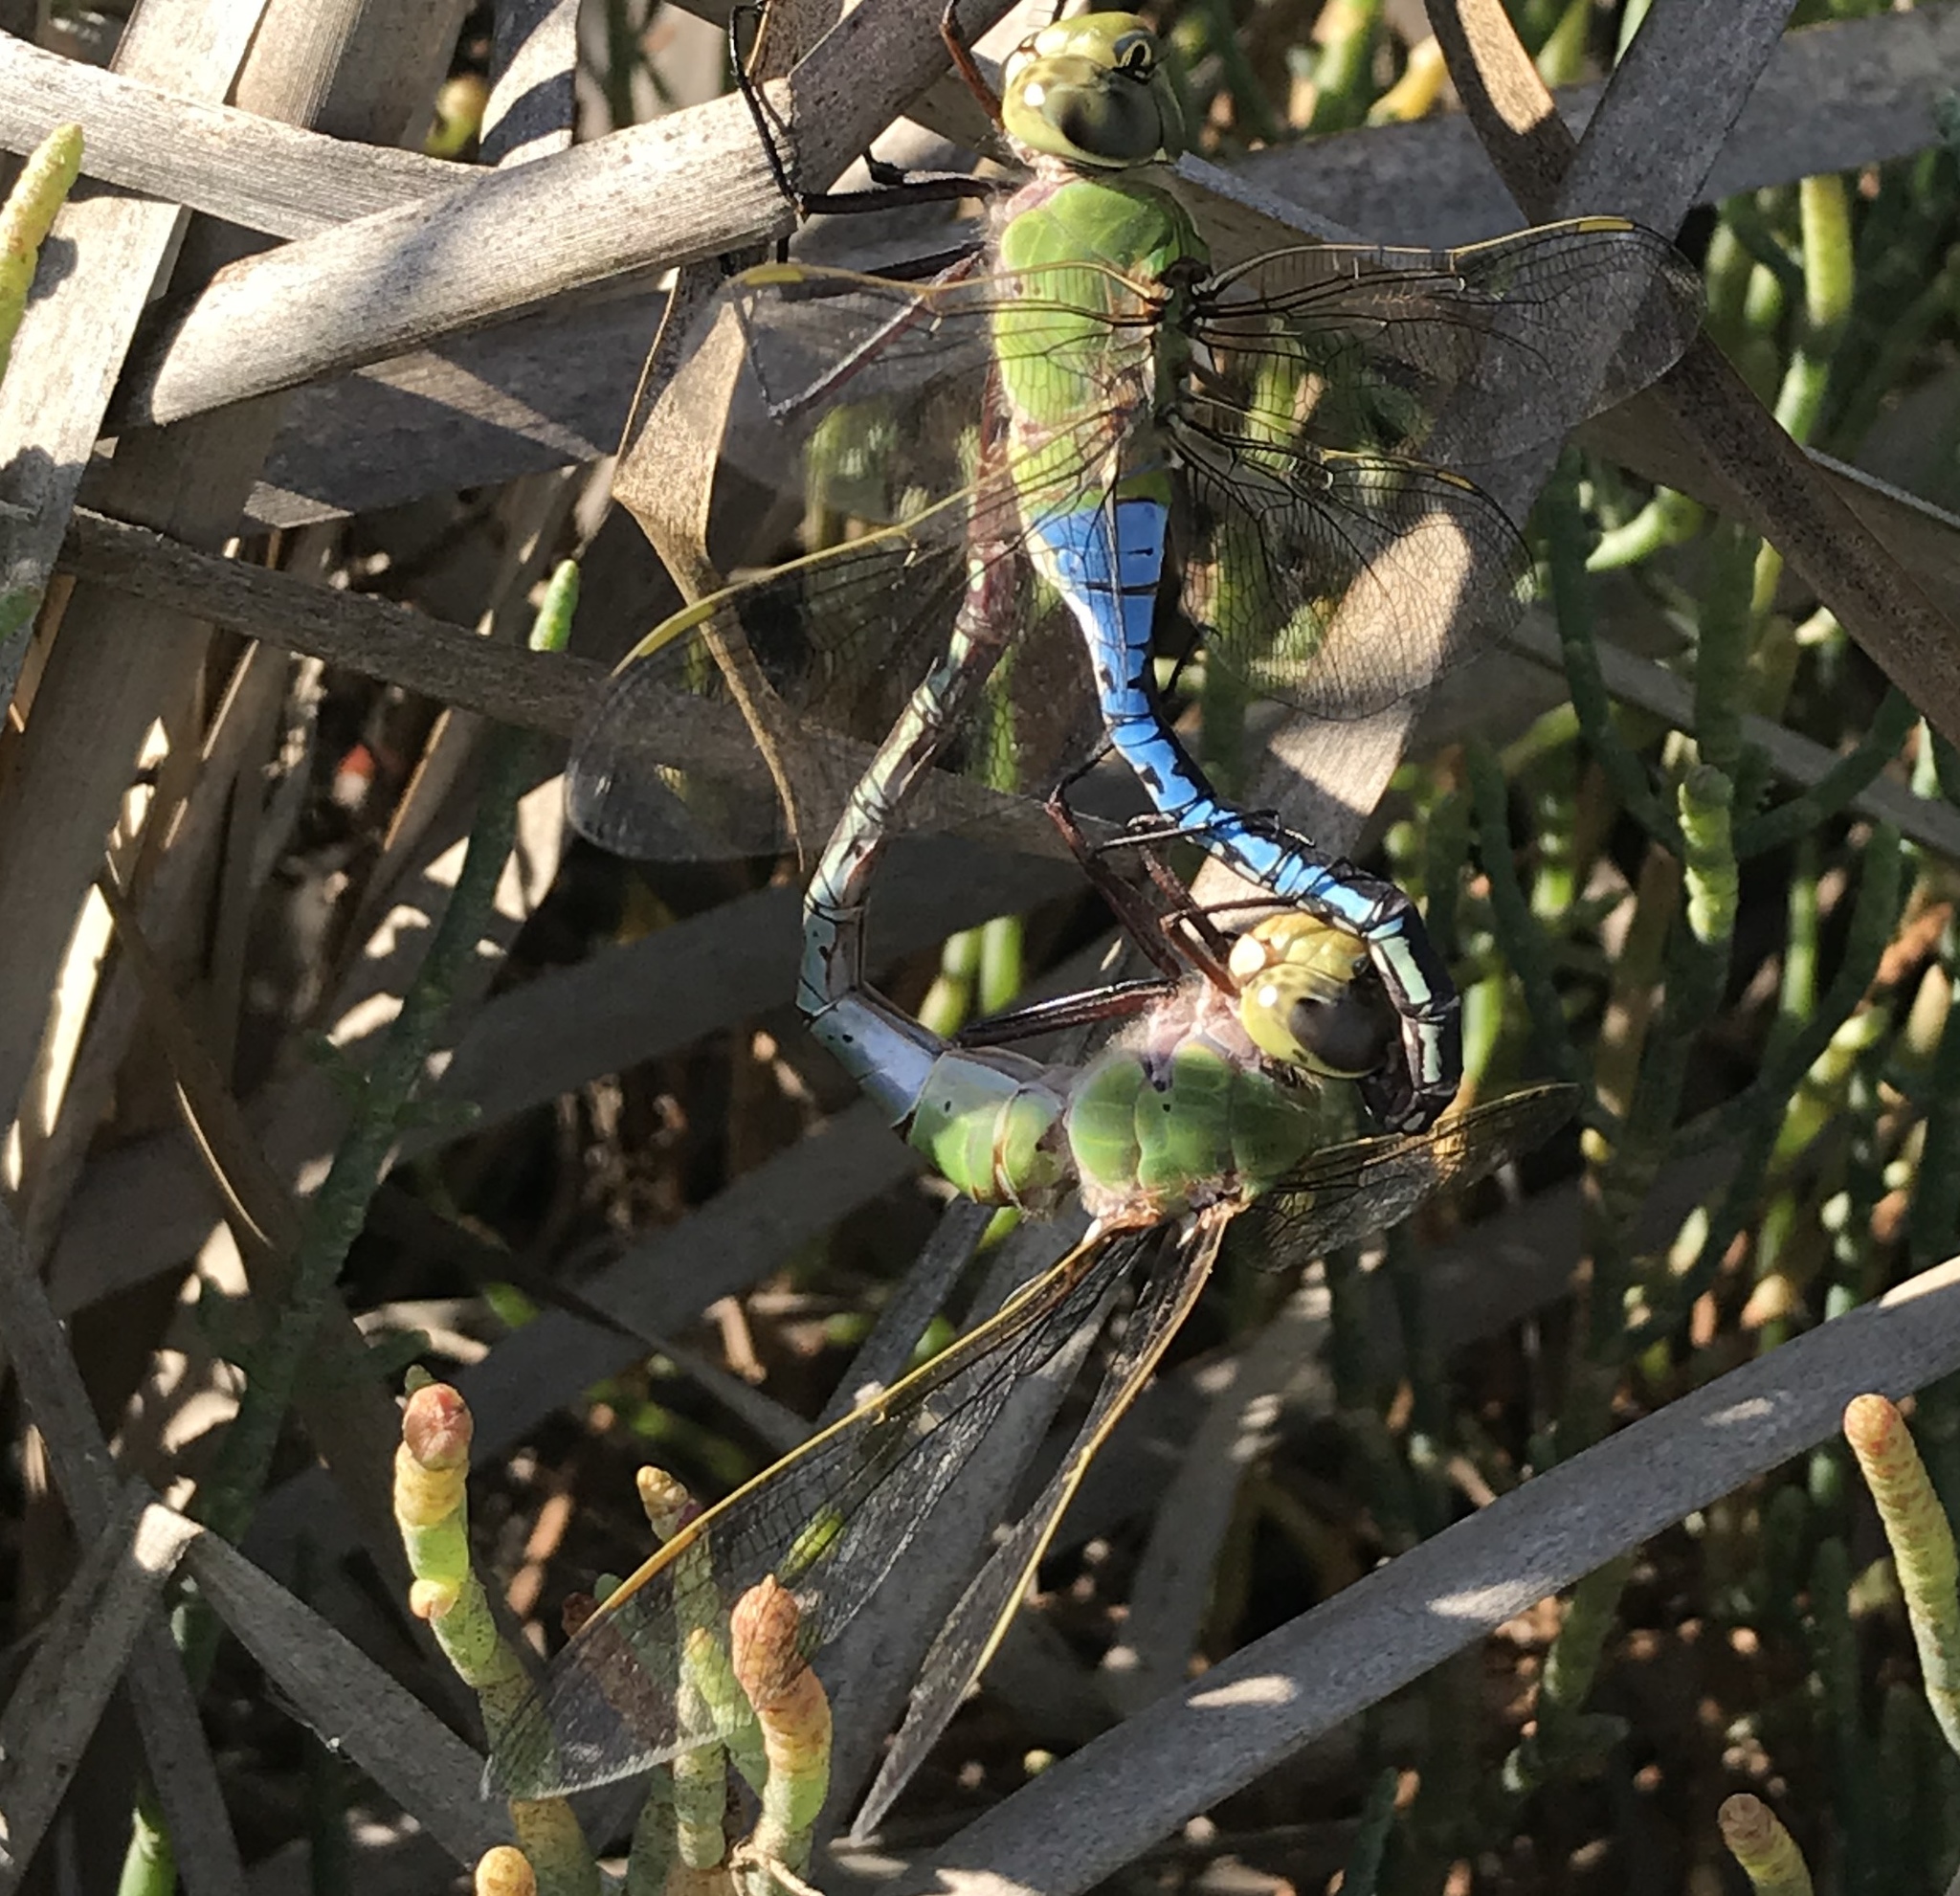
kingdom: Animalia
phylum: Arthropoda
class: Insecta
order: Odonata
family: Aeshnidae
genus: Anax
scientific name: Anax junius
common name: Common green darner
